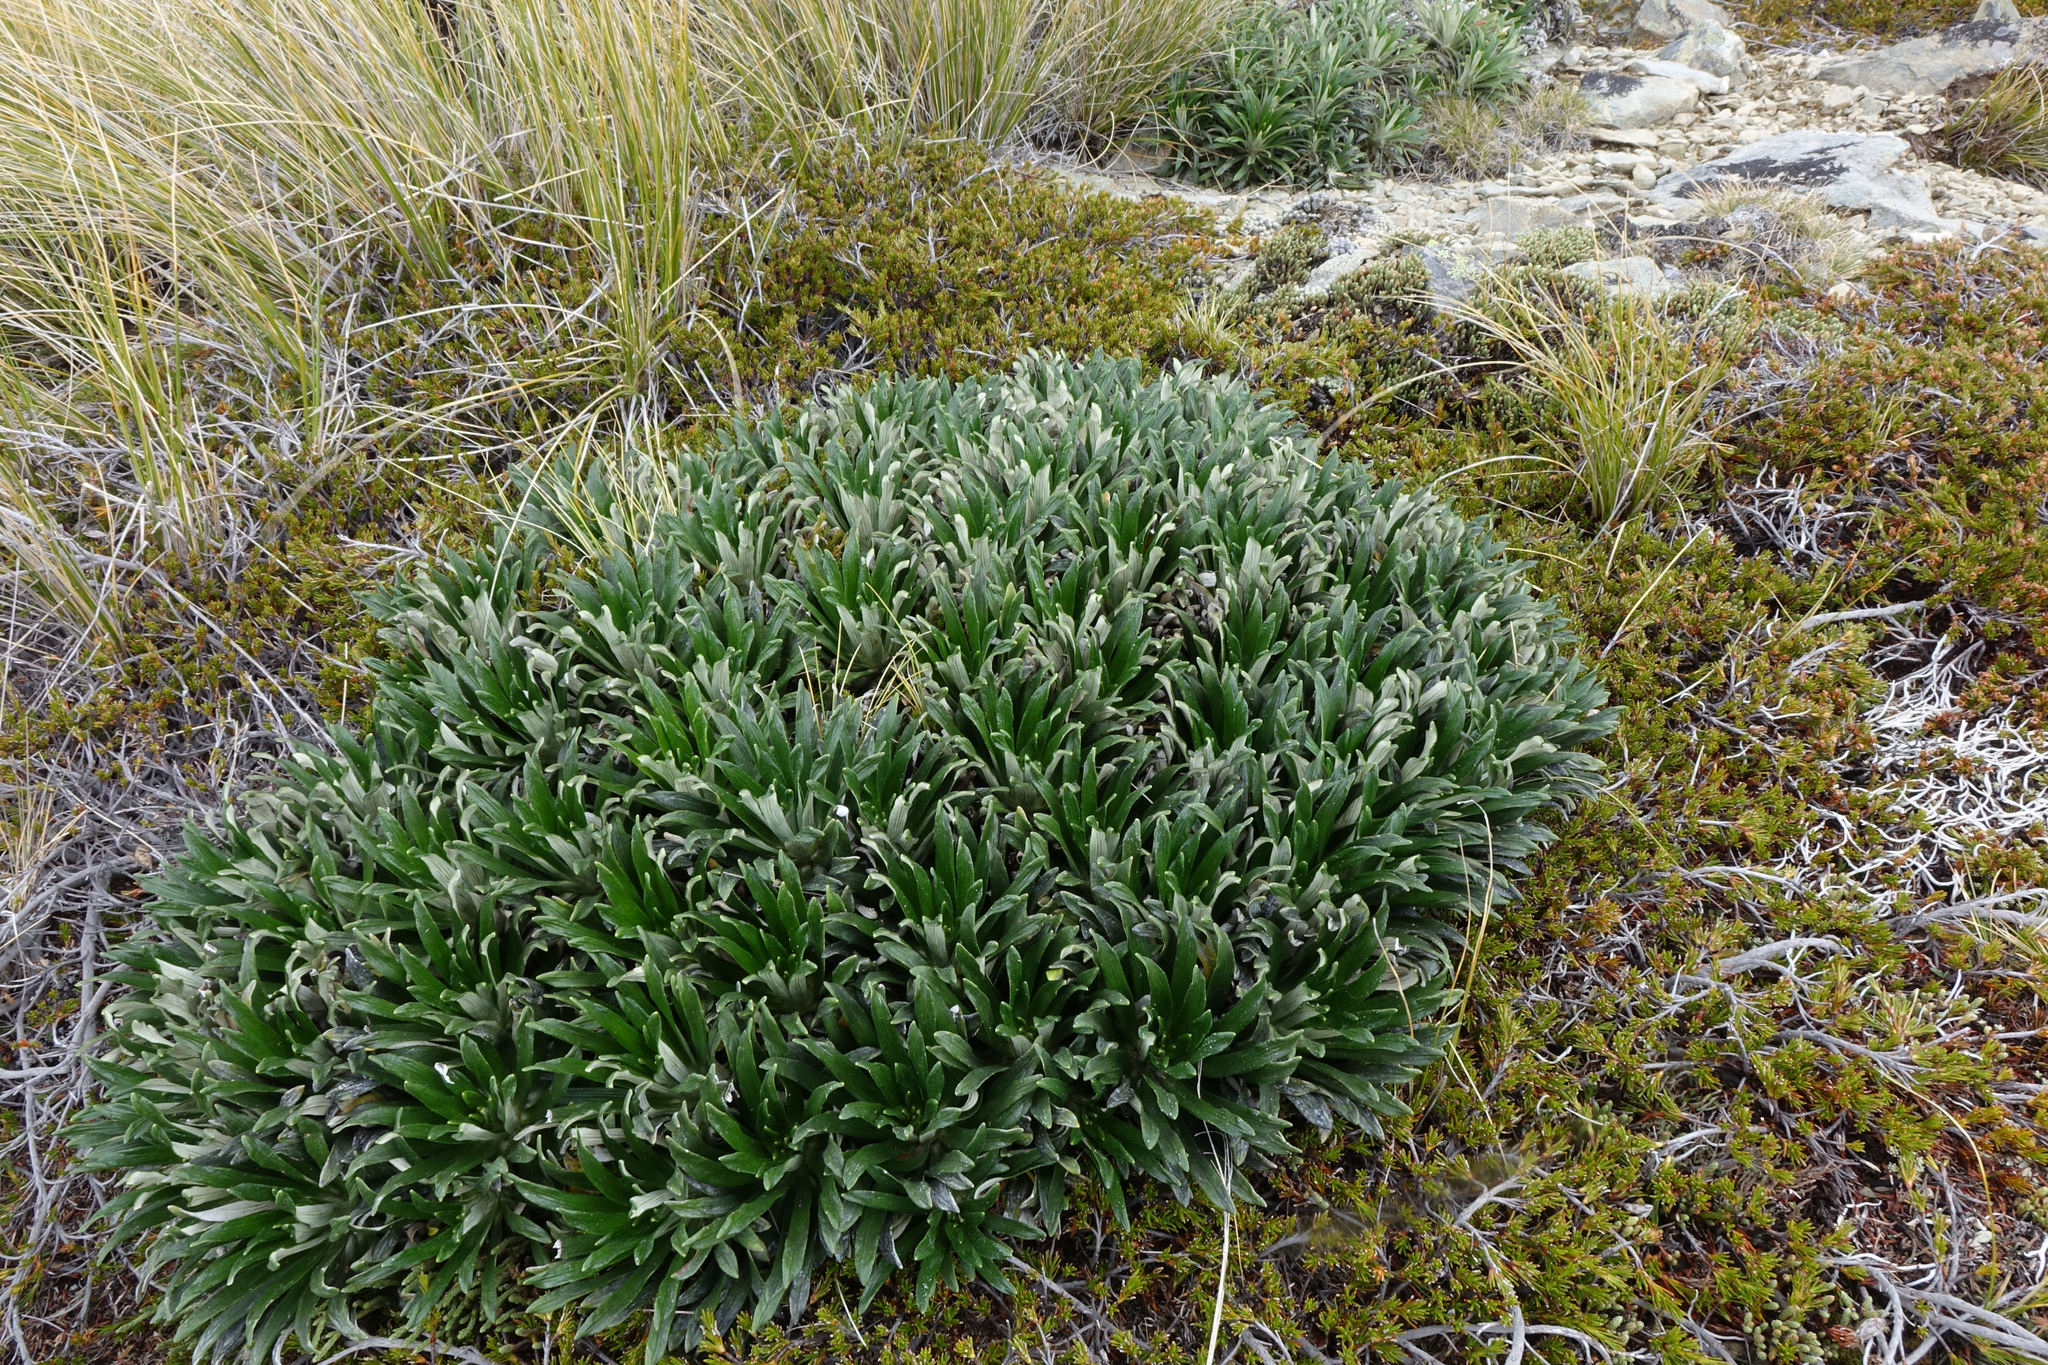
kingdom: Plantae
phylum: Tracheophyta
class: Magnoliopsida
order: Asterales
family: Asteraceae
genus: Celmisia
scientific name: Celmisia viscosa
